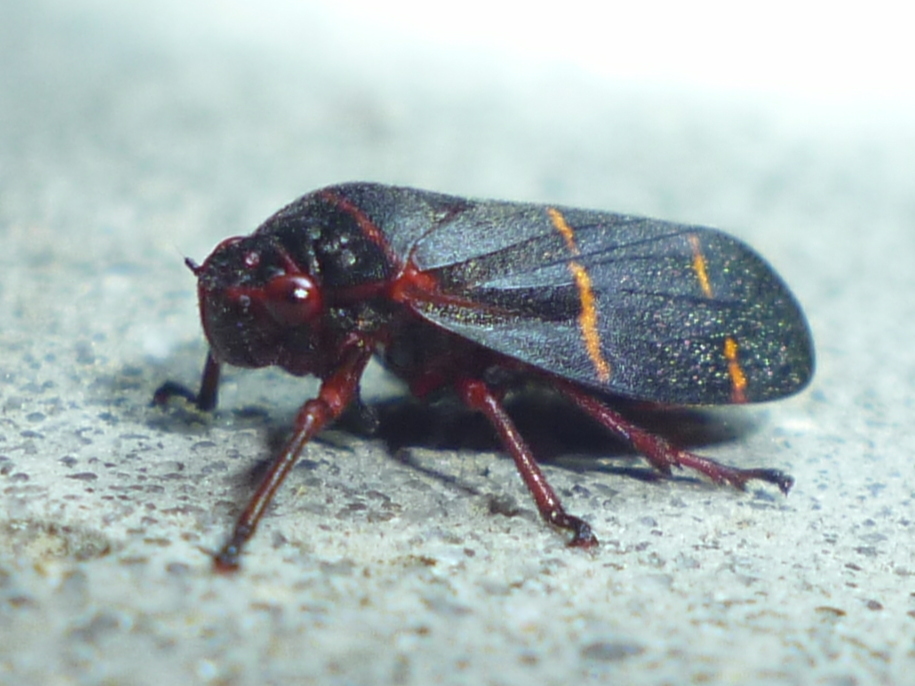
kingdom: Animalia
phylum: Arthropoda
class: Insecta
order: Hemiptera
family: Cercopidae
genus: Prosapia
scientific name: Prosapia bicincta
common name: Twolined spittlebug
